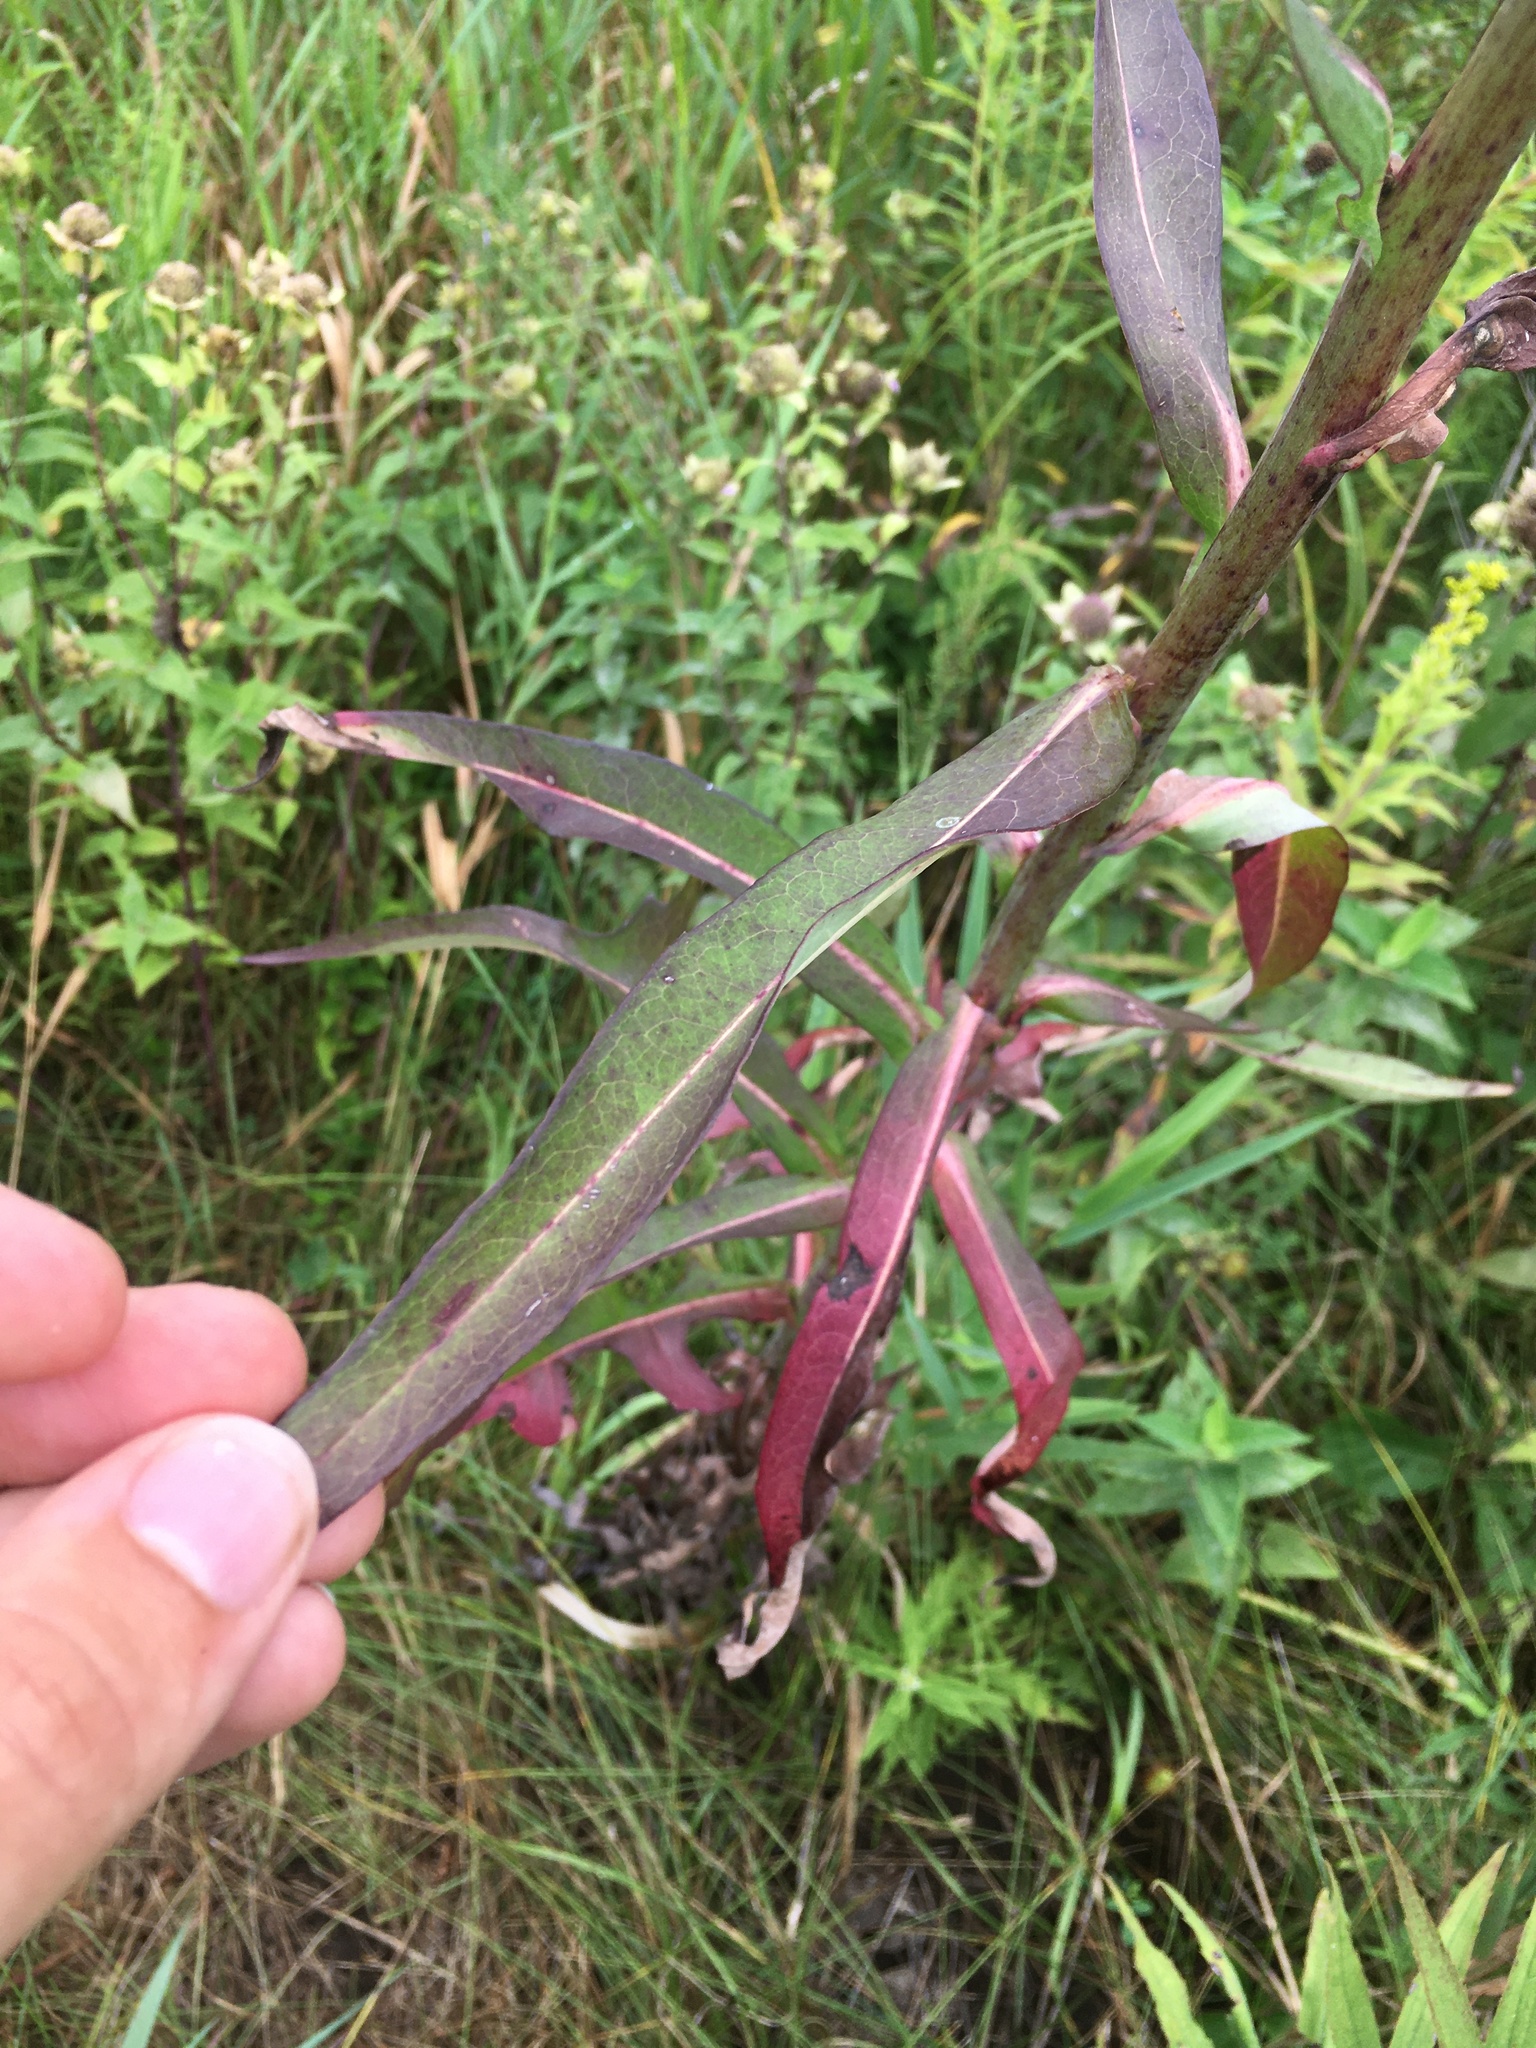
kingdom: Plantae
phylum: Tracheophyta
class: Magnoliopsida
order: Asterales
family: Asteraceae
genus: Lactuca
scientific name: Lactuca canadensis
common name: Canada lettuce
